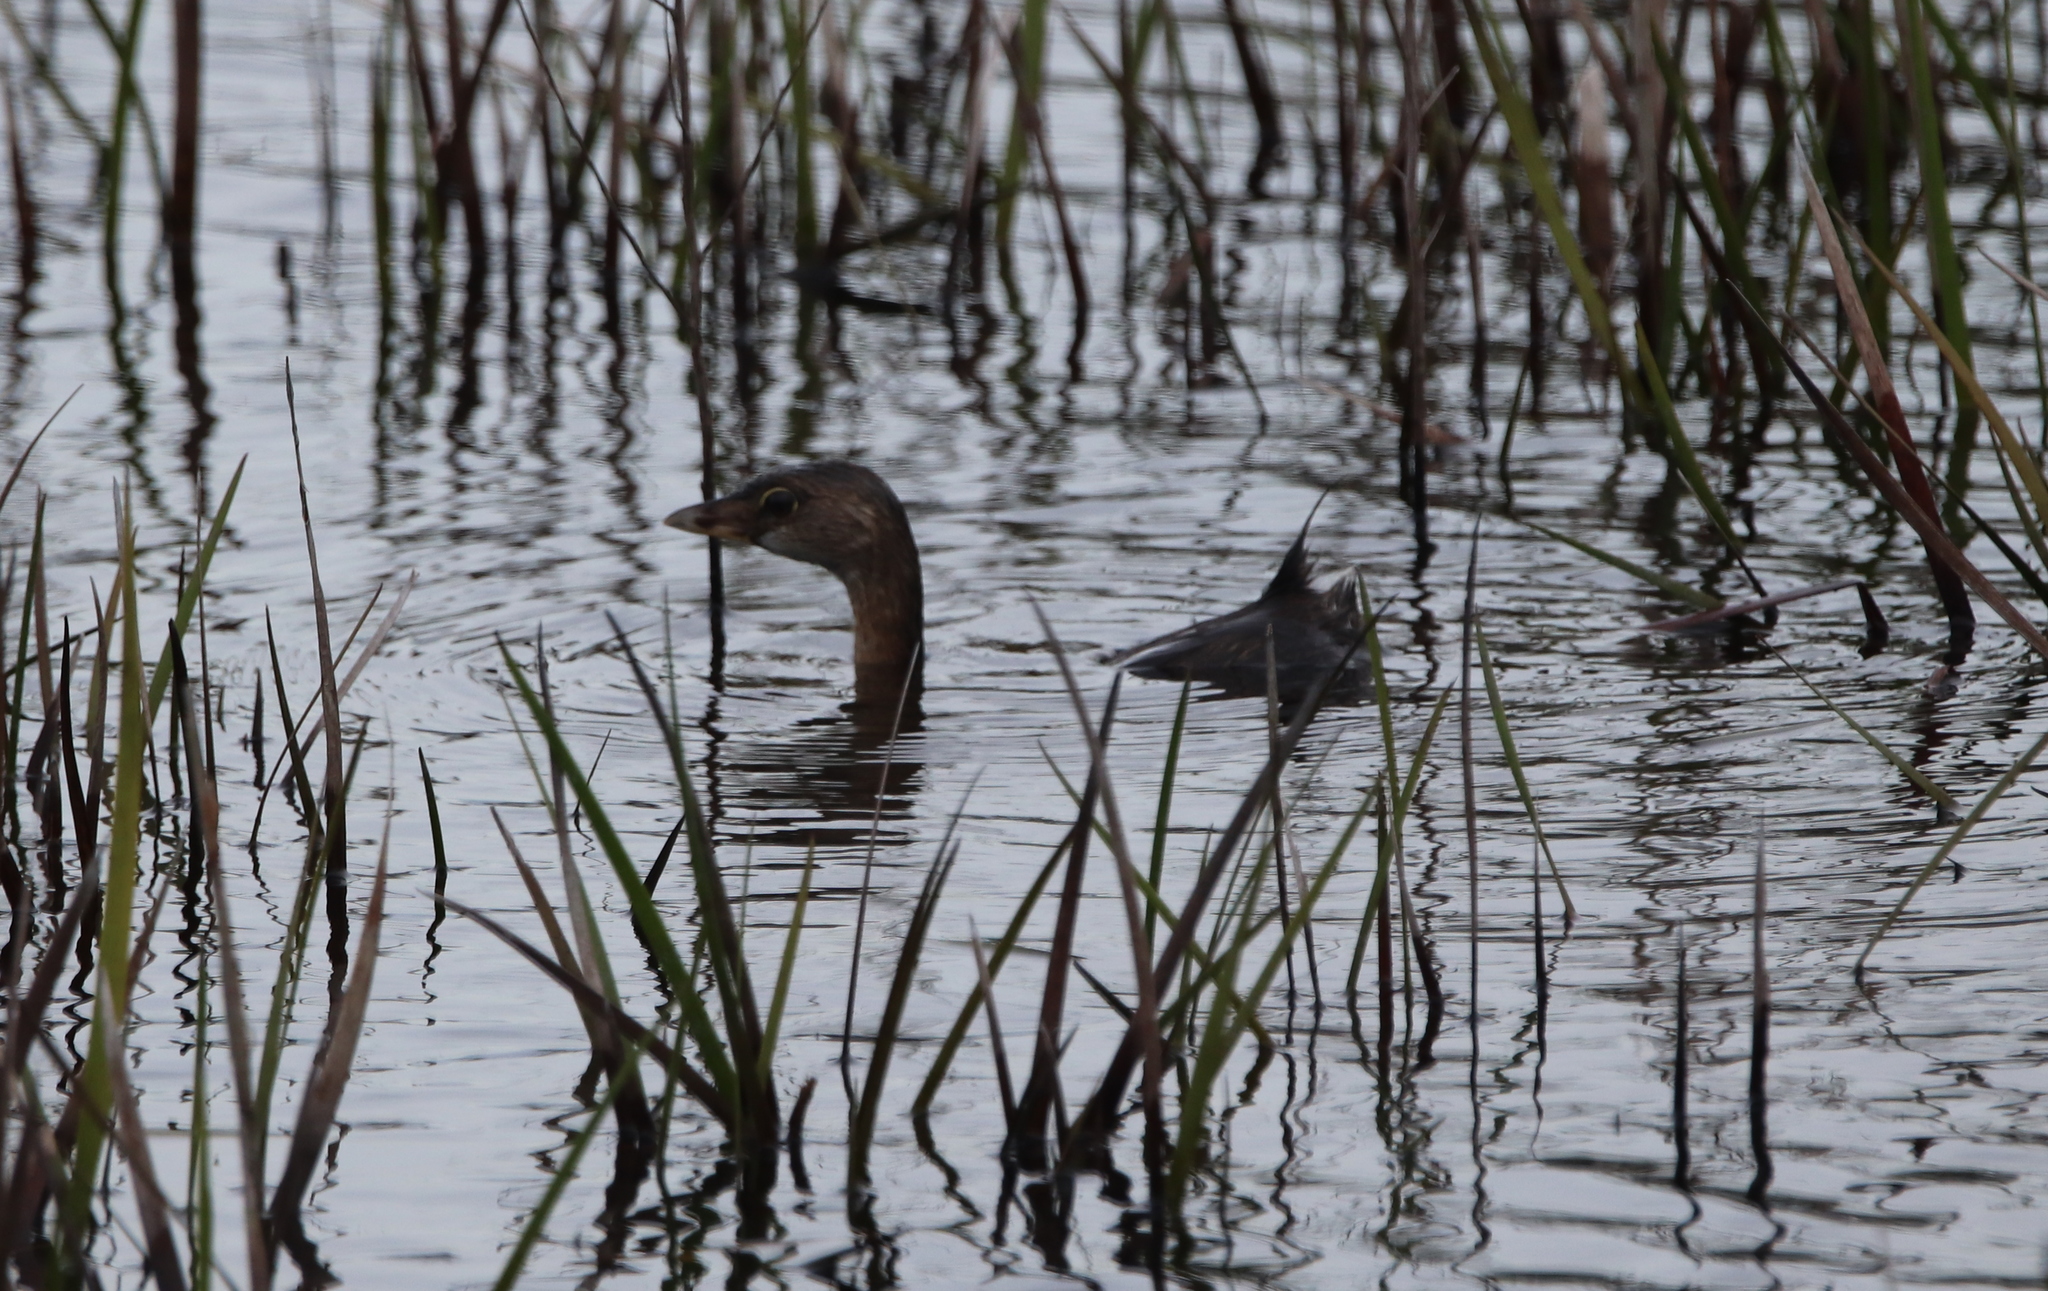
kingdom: Animalia
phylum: Chordata
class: Aves
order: Podicipediformes
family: Podicipedidae
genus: Podilymbus
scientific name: Podilymbus podiceps
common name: Pied-billed grebe
